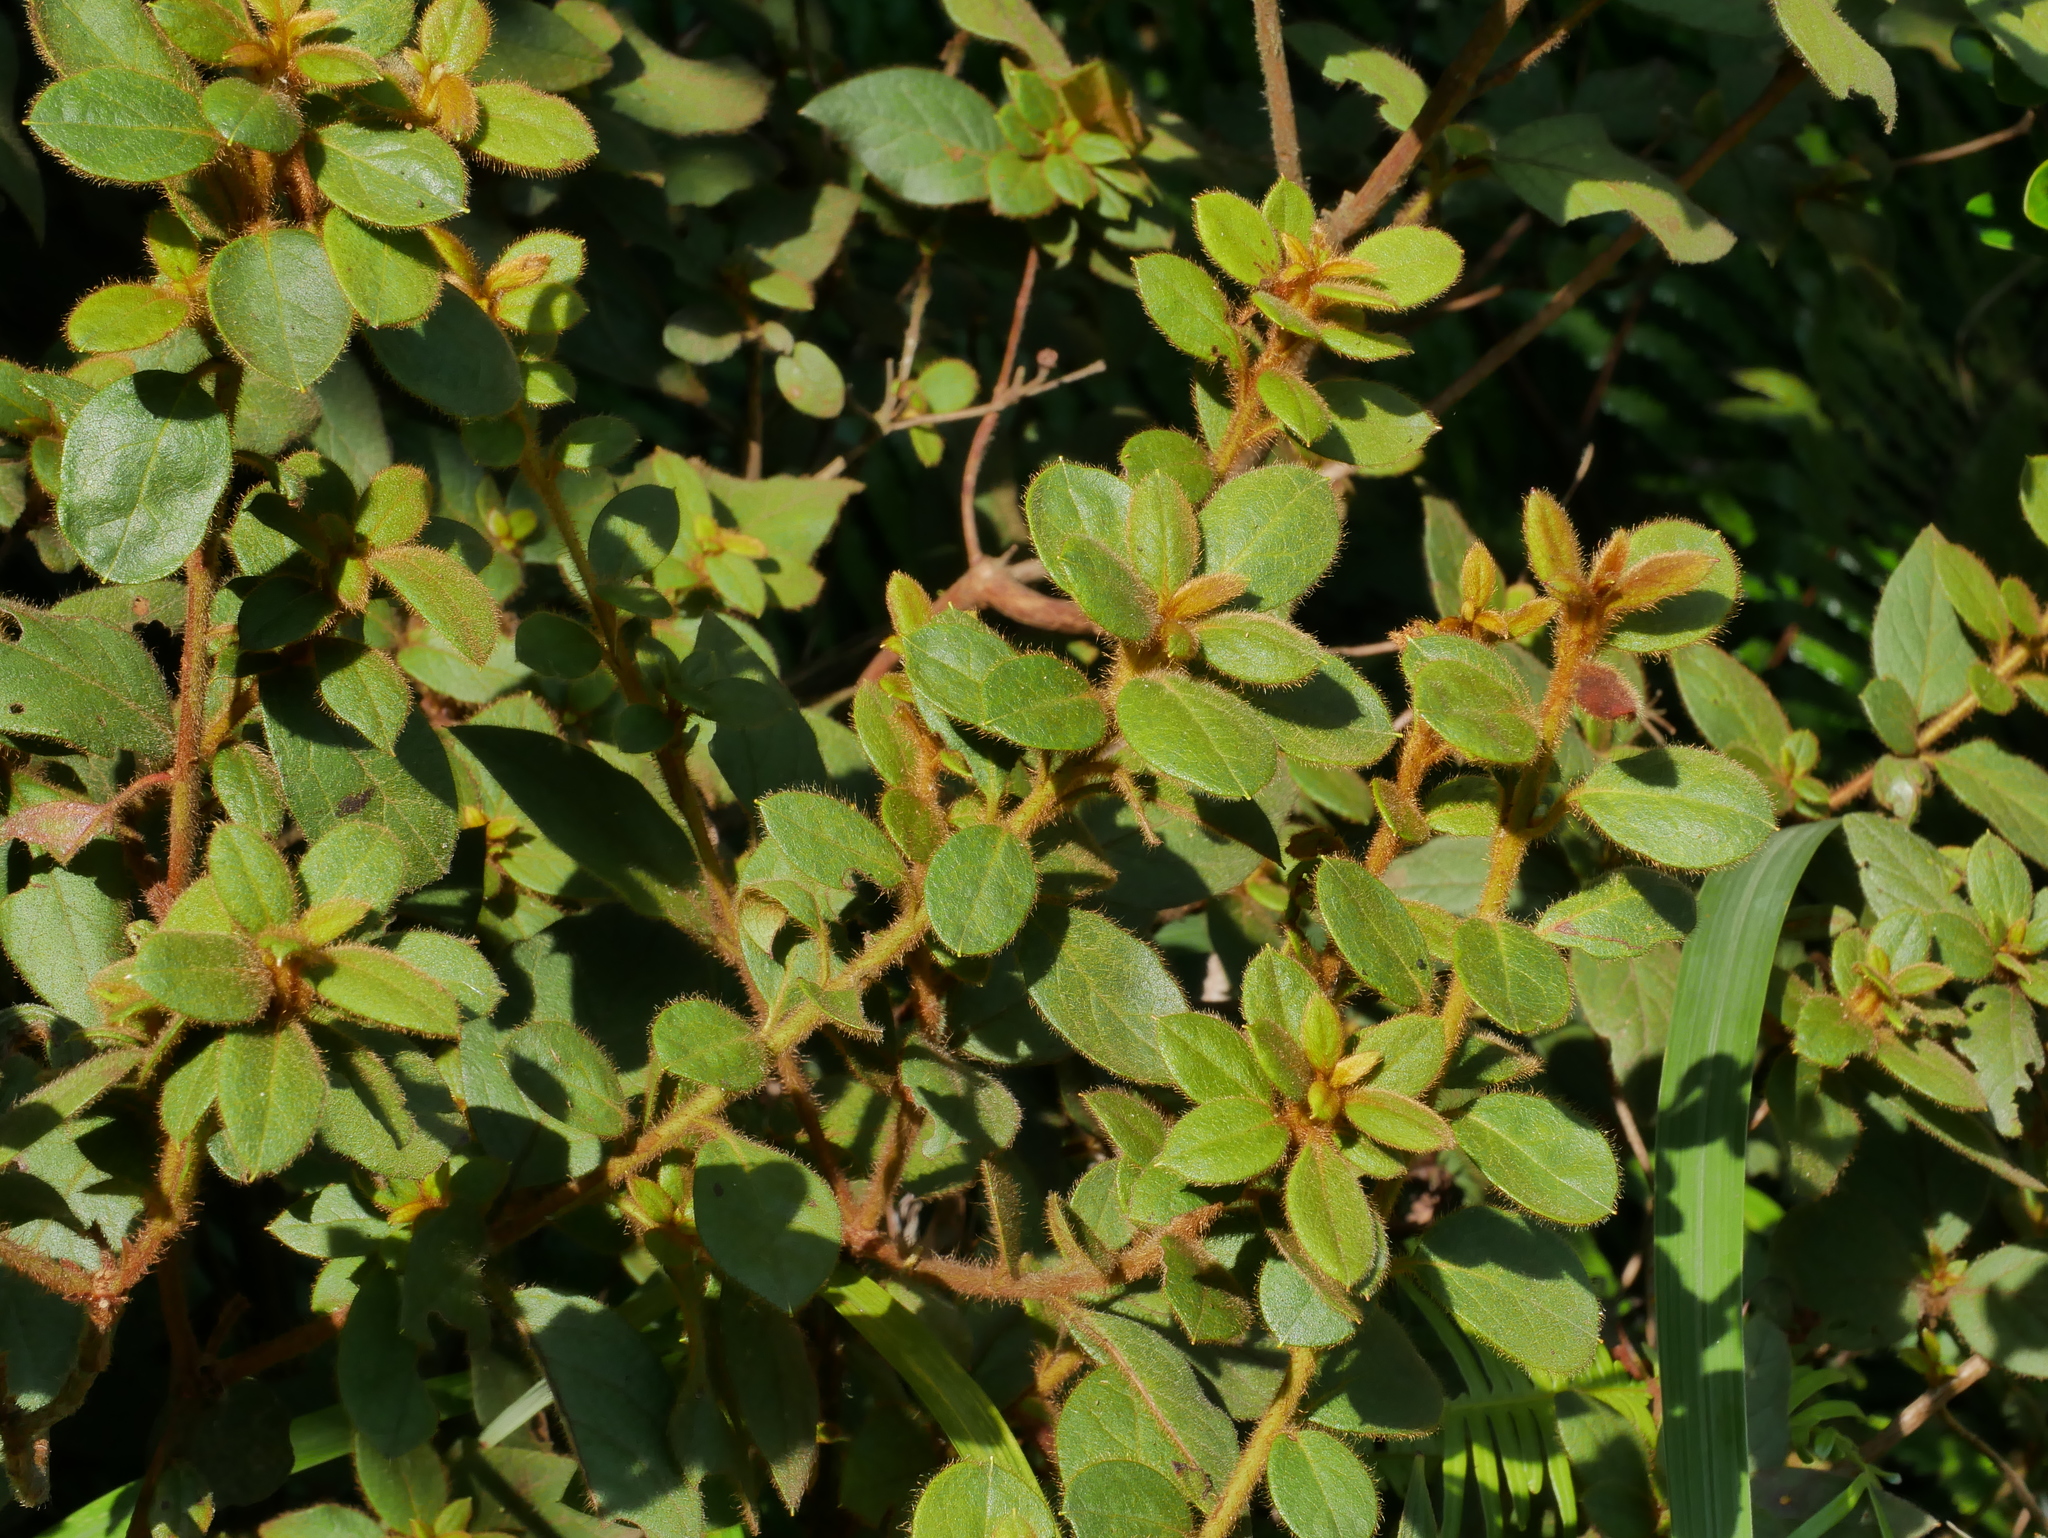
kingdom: Plantae
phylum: Tracheophyta
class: Magnoliopsida
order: Ericales
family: Ericaceae
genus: Rhododendron
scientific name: Rhododendron oldhamii
